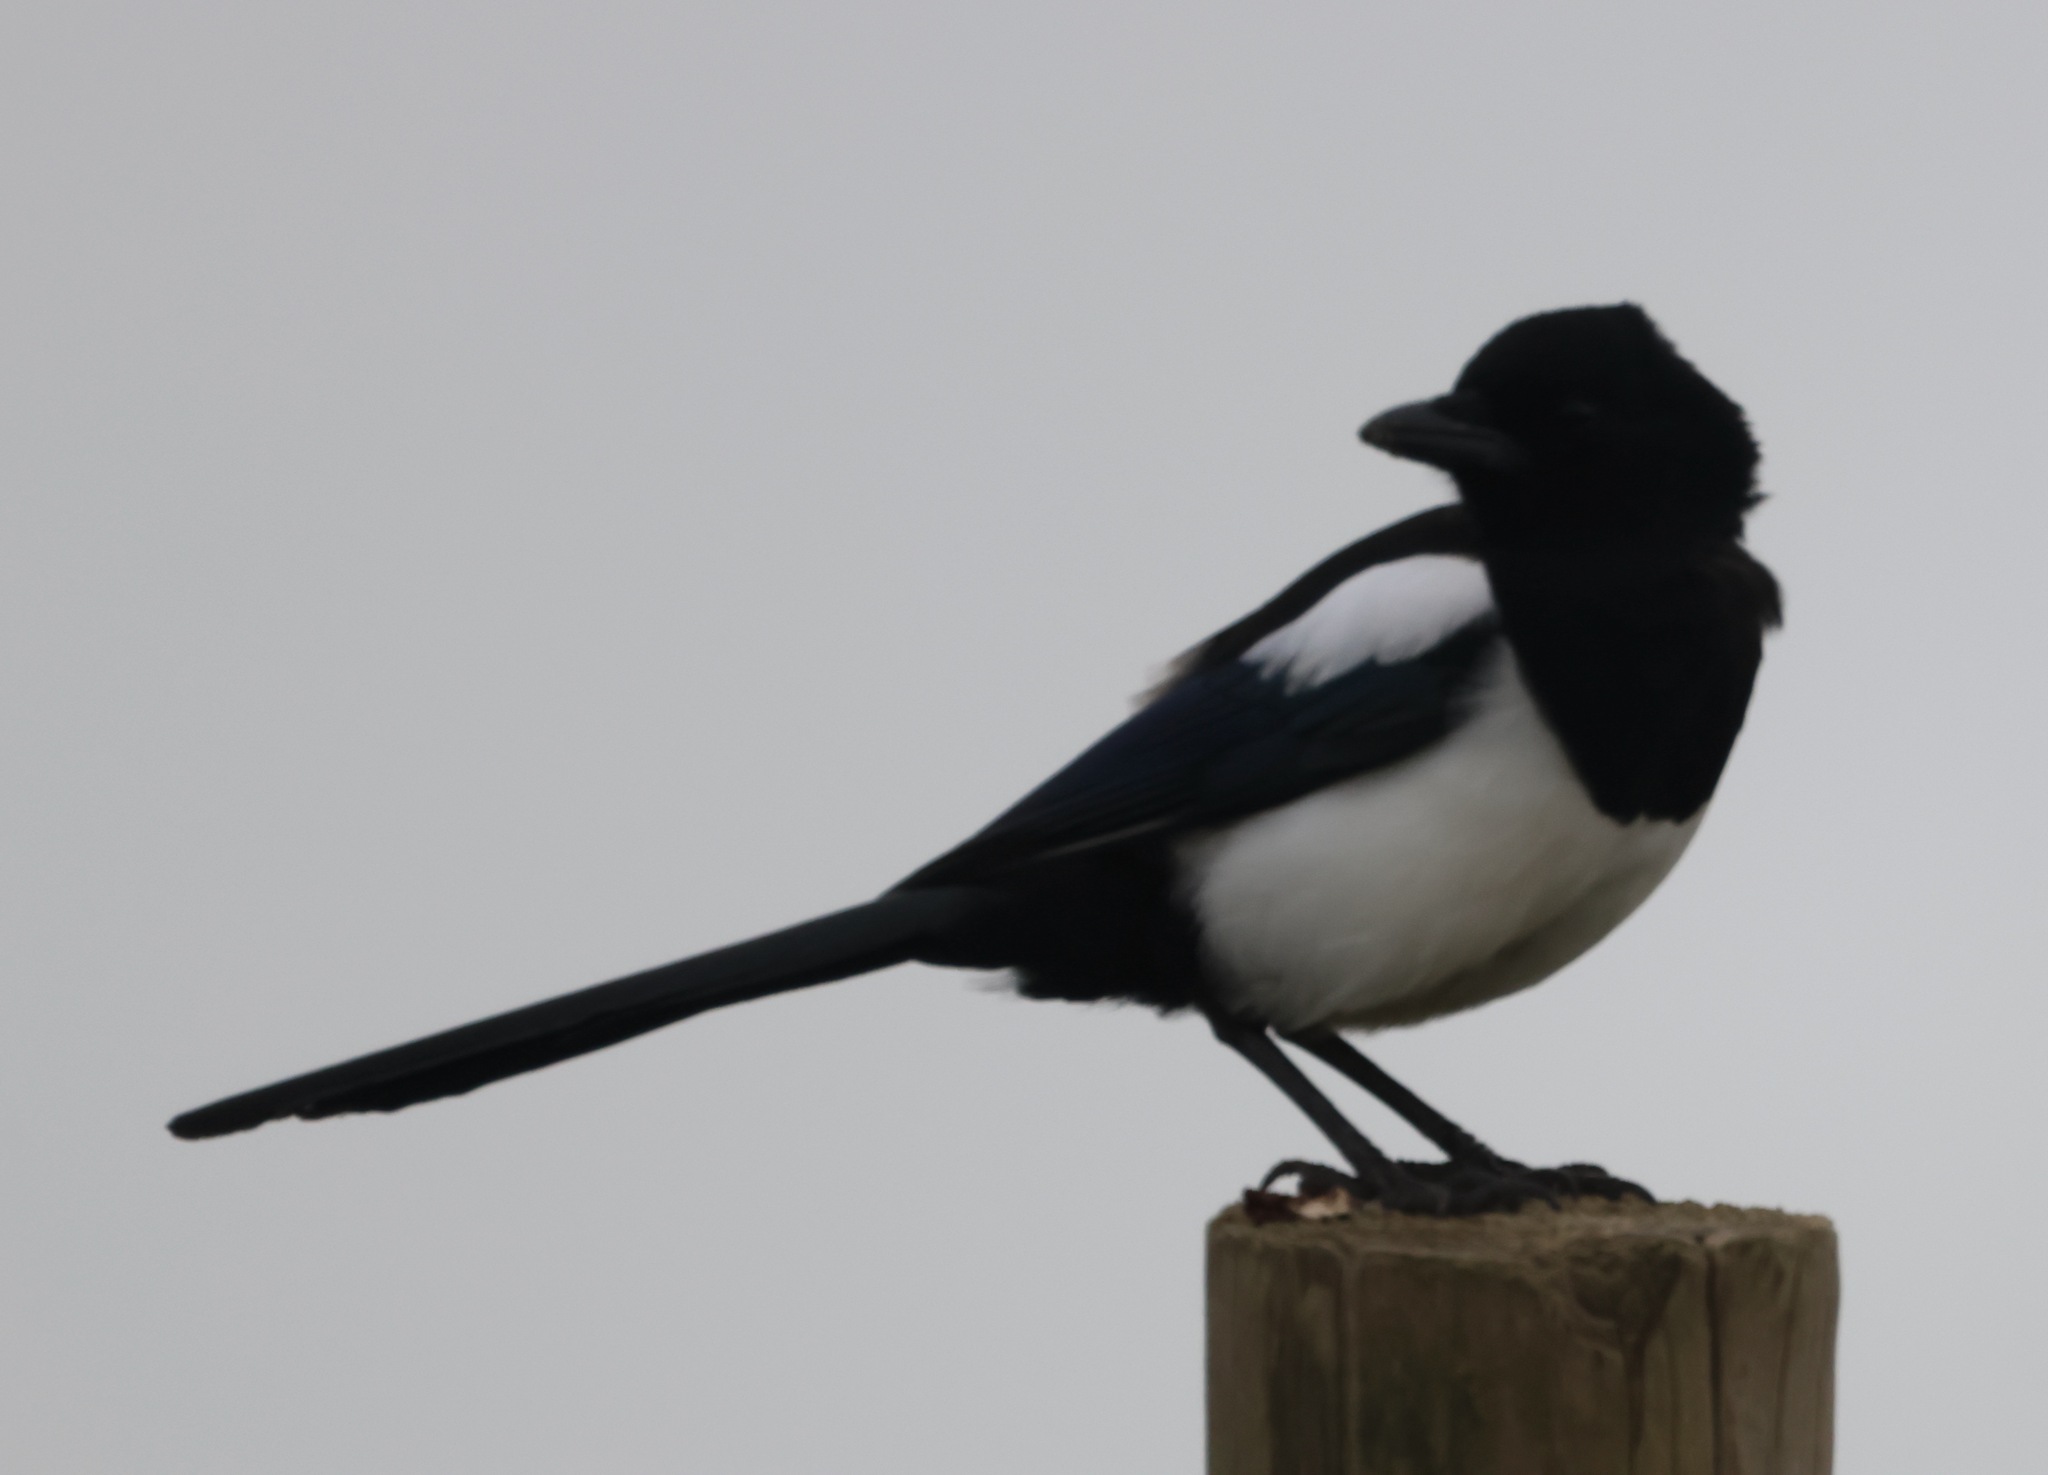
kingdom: Animalia
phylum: Chordata
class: Aves
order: Passeriformes
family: Corvidae
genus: Pica
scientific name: Pica pica
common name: Eurasian magpie
